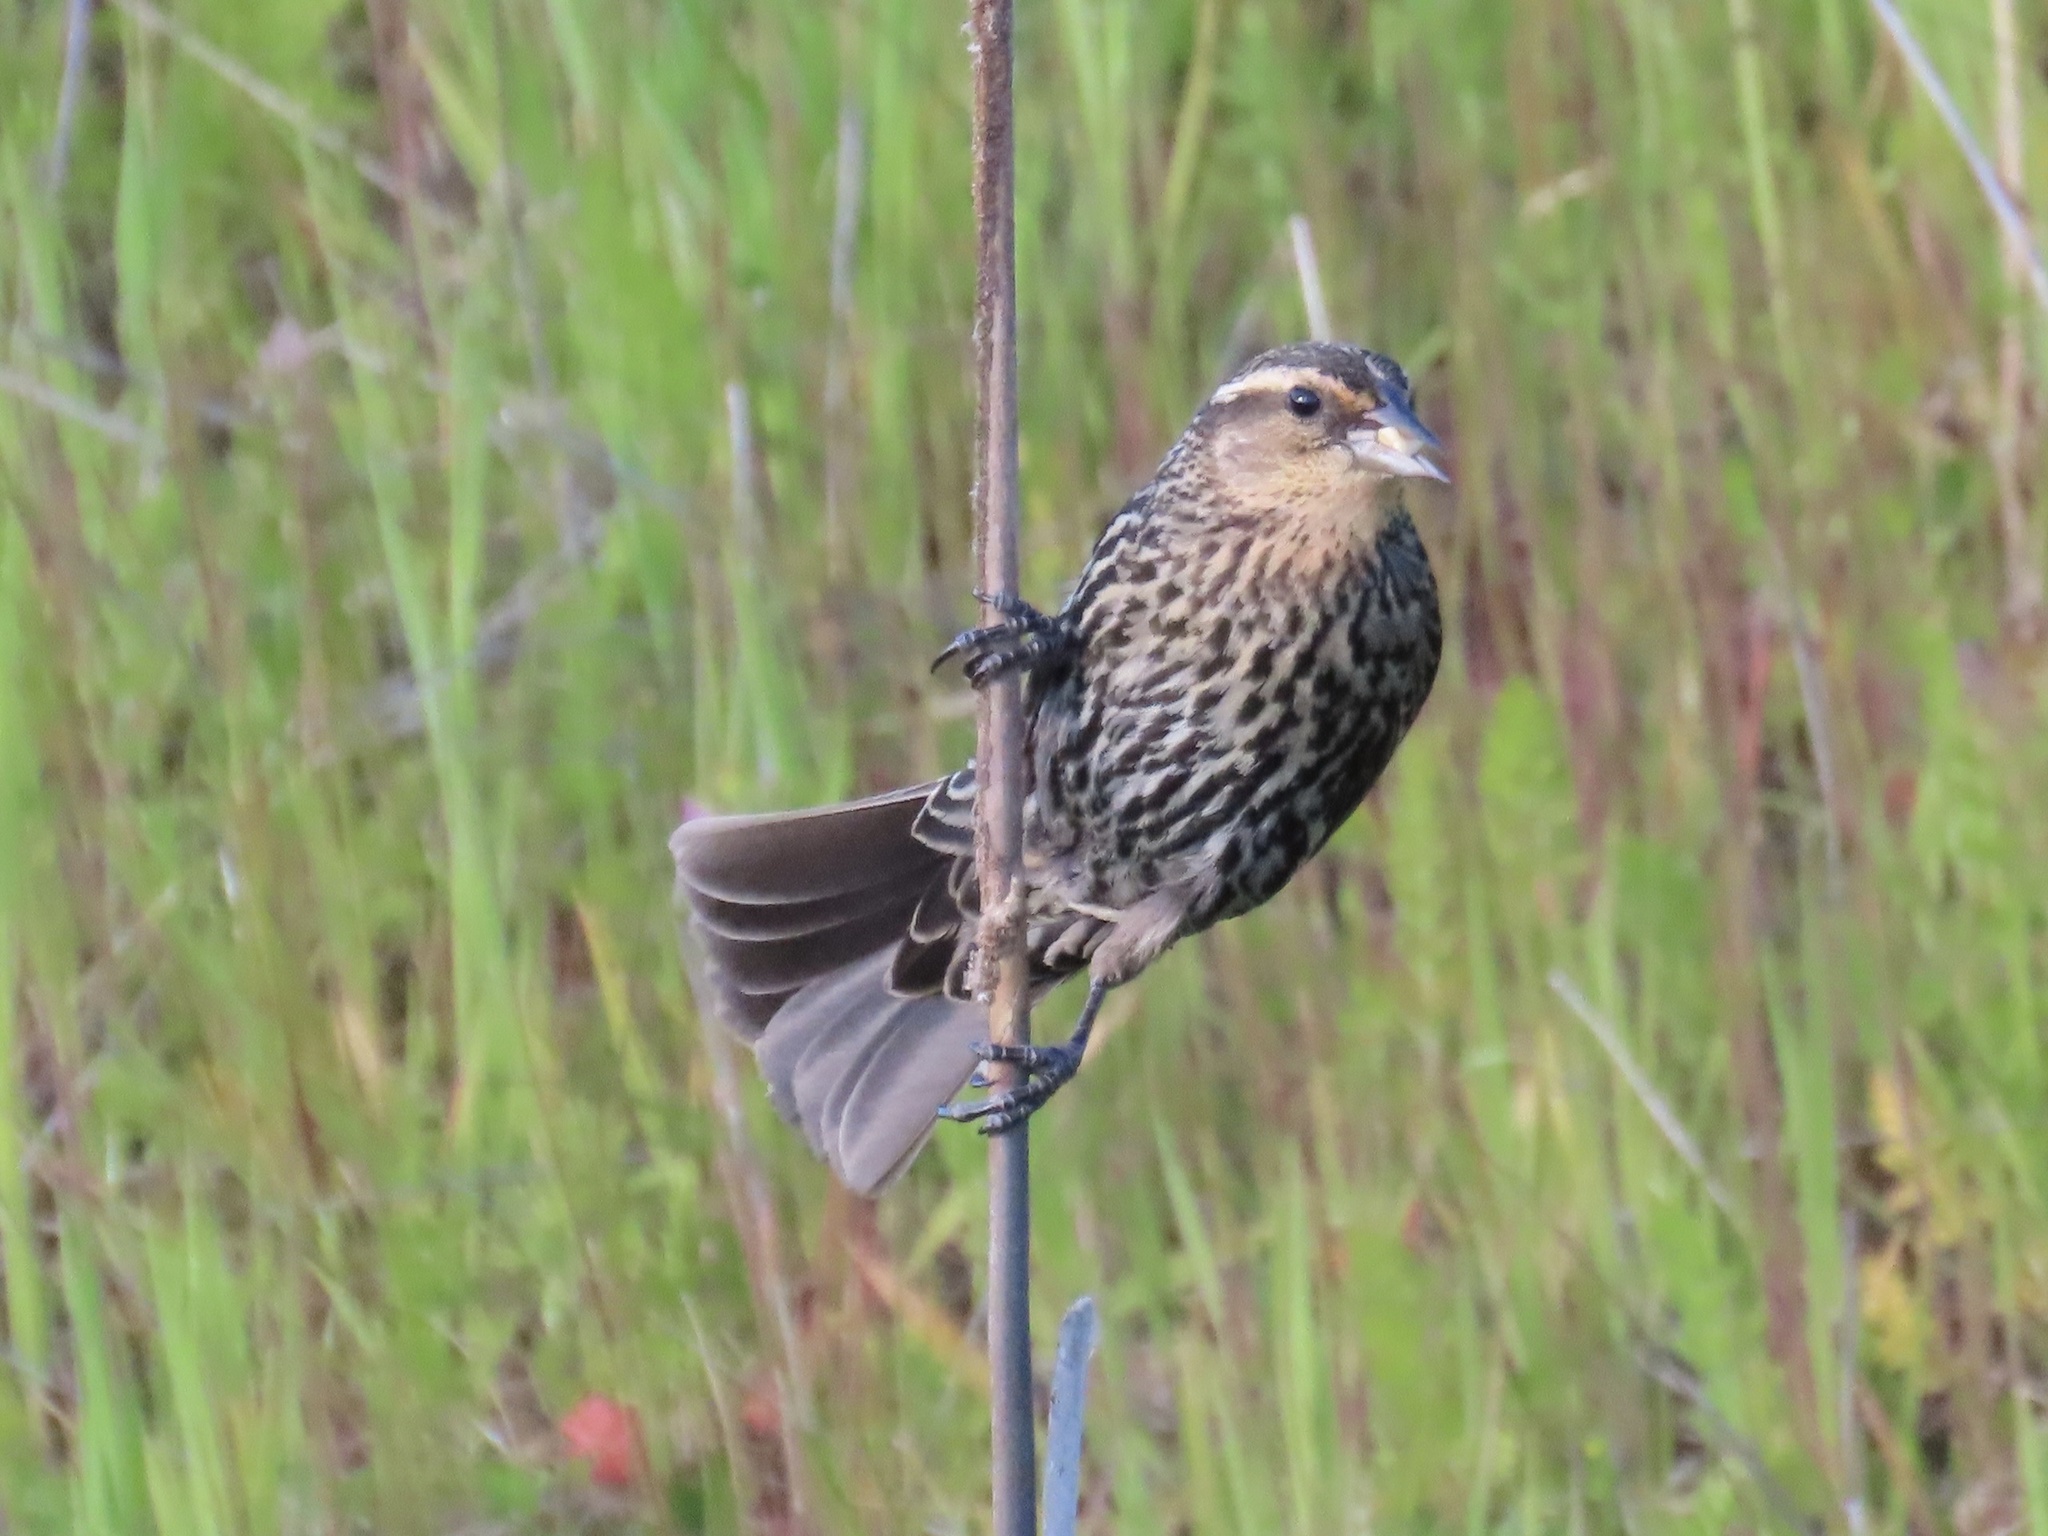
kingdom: Animalia
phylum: Chordata
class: Aves
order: Passeriformes
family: Icteridae
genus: Agelaius
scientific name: Agelaius phoeniceus
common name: Red-winged blackbird
